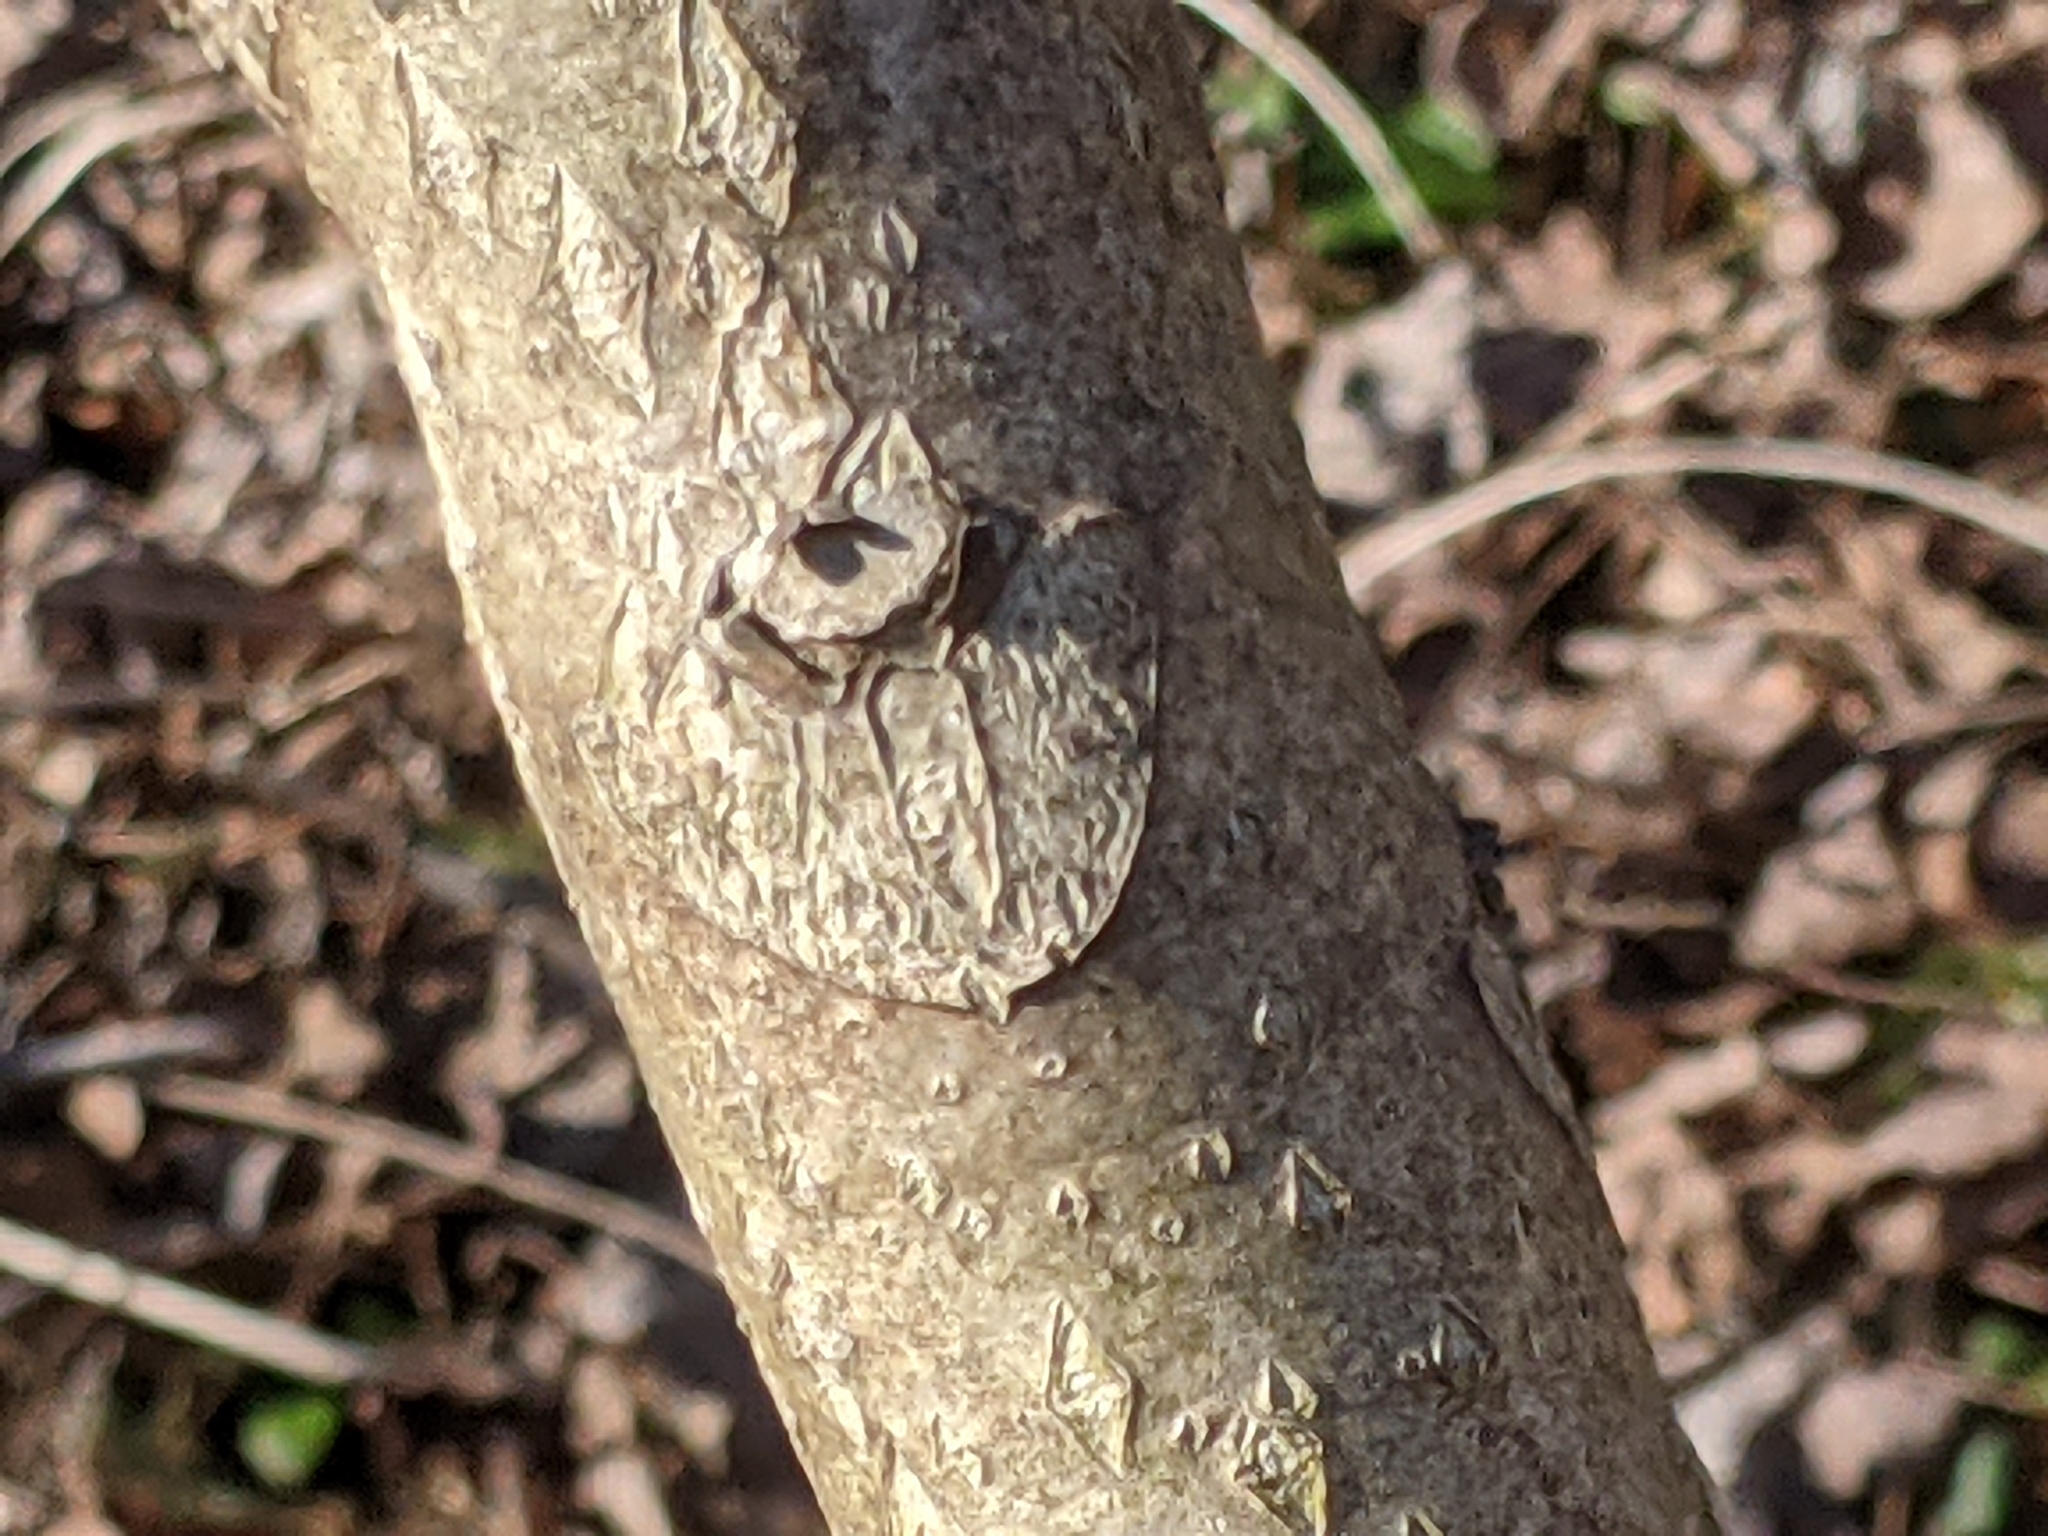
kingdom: Plantae
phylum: Tracheophyta
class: Magnoliopsida
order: Sapindales
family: Simaroubaceae
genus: Ailanthus
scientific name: Ailanthus altissima
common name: Tree-of-heaven
